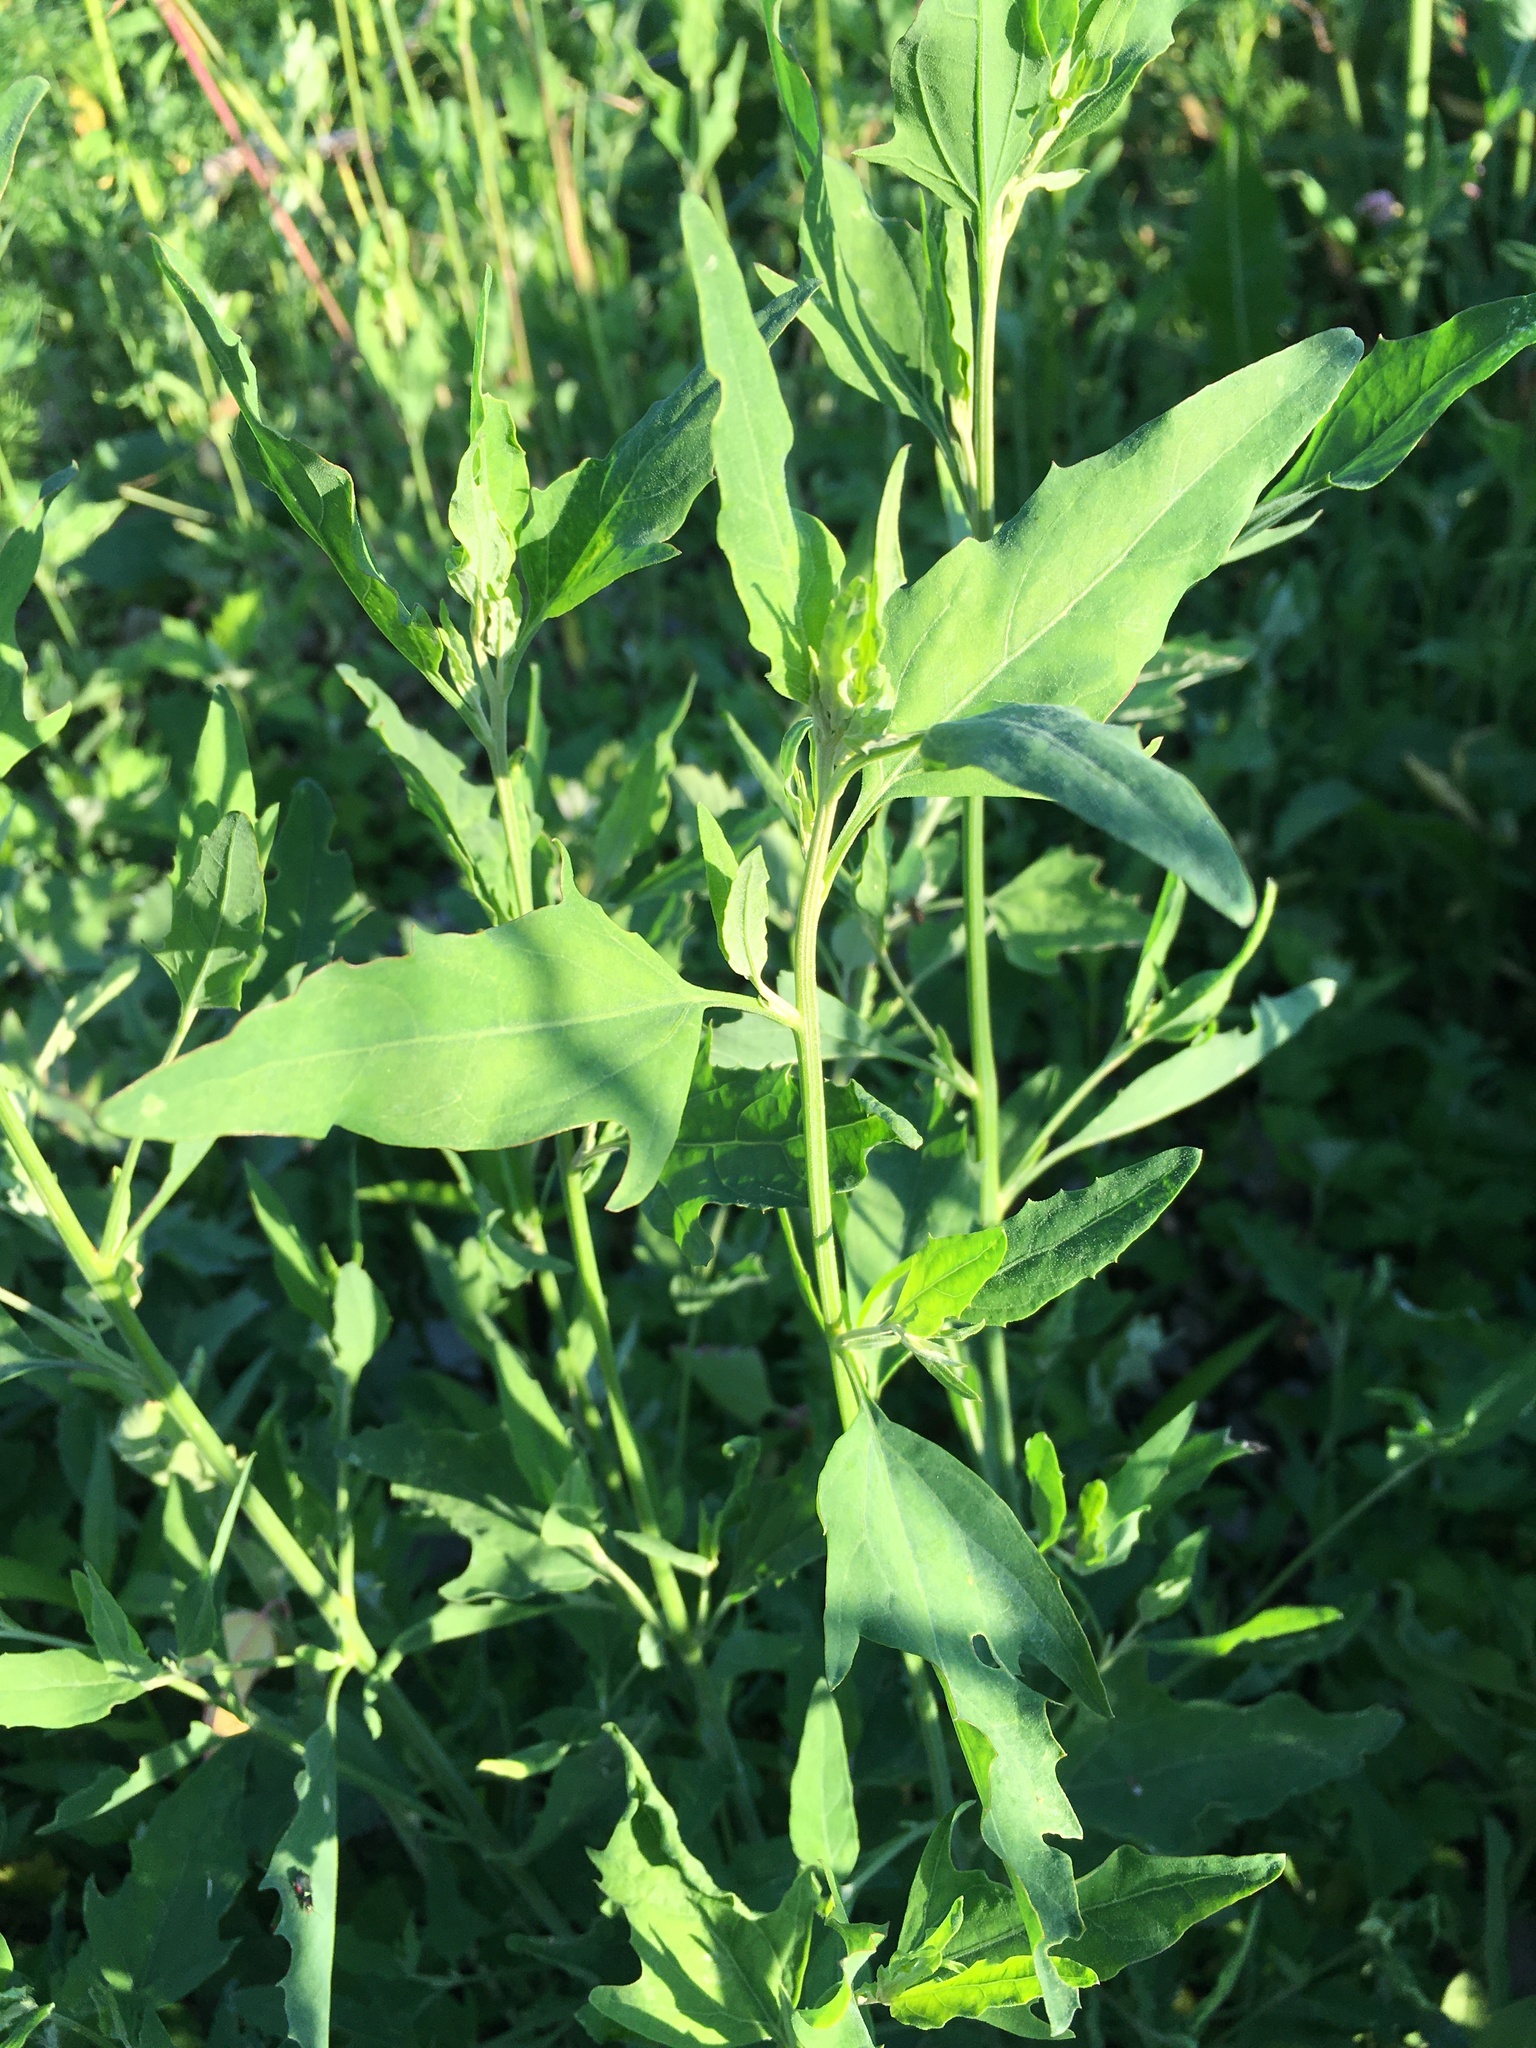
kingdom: Plantae
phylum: Tracheophyta
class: Magnoliopsida
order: Caryophyllales
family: Amaranthaceae
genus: Atriplex
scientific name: Atriplex patula
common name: Common orache
